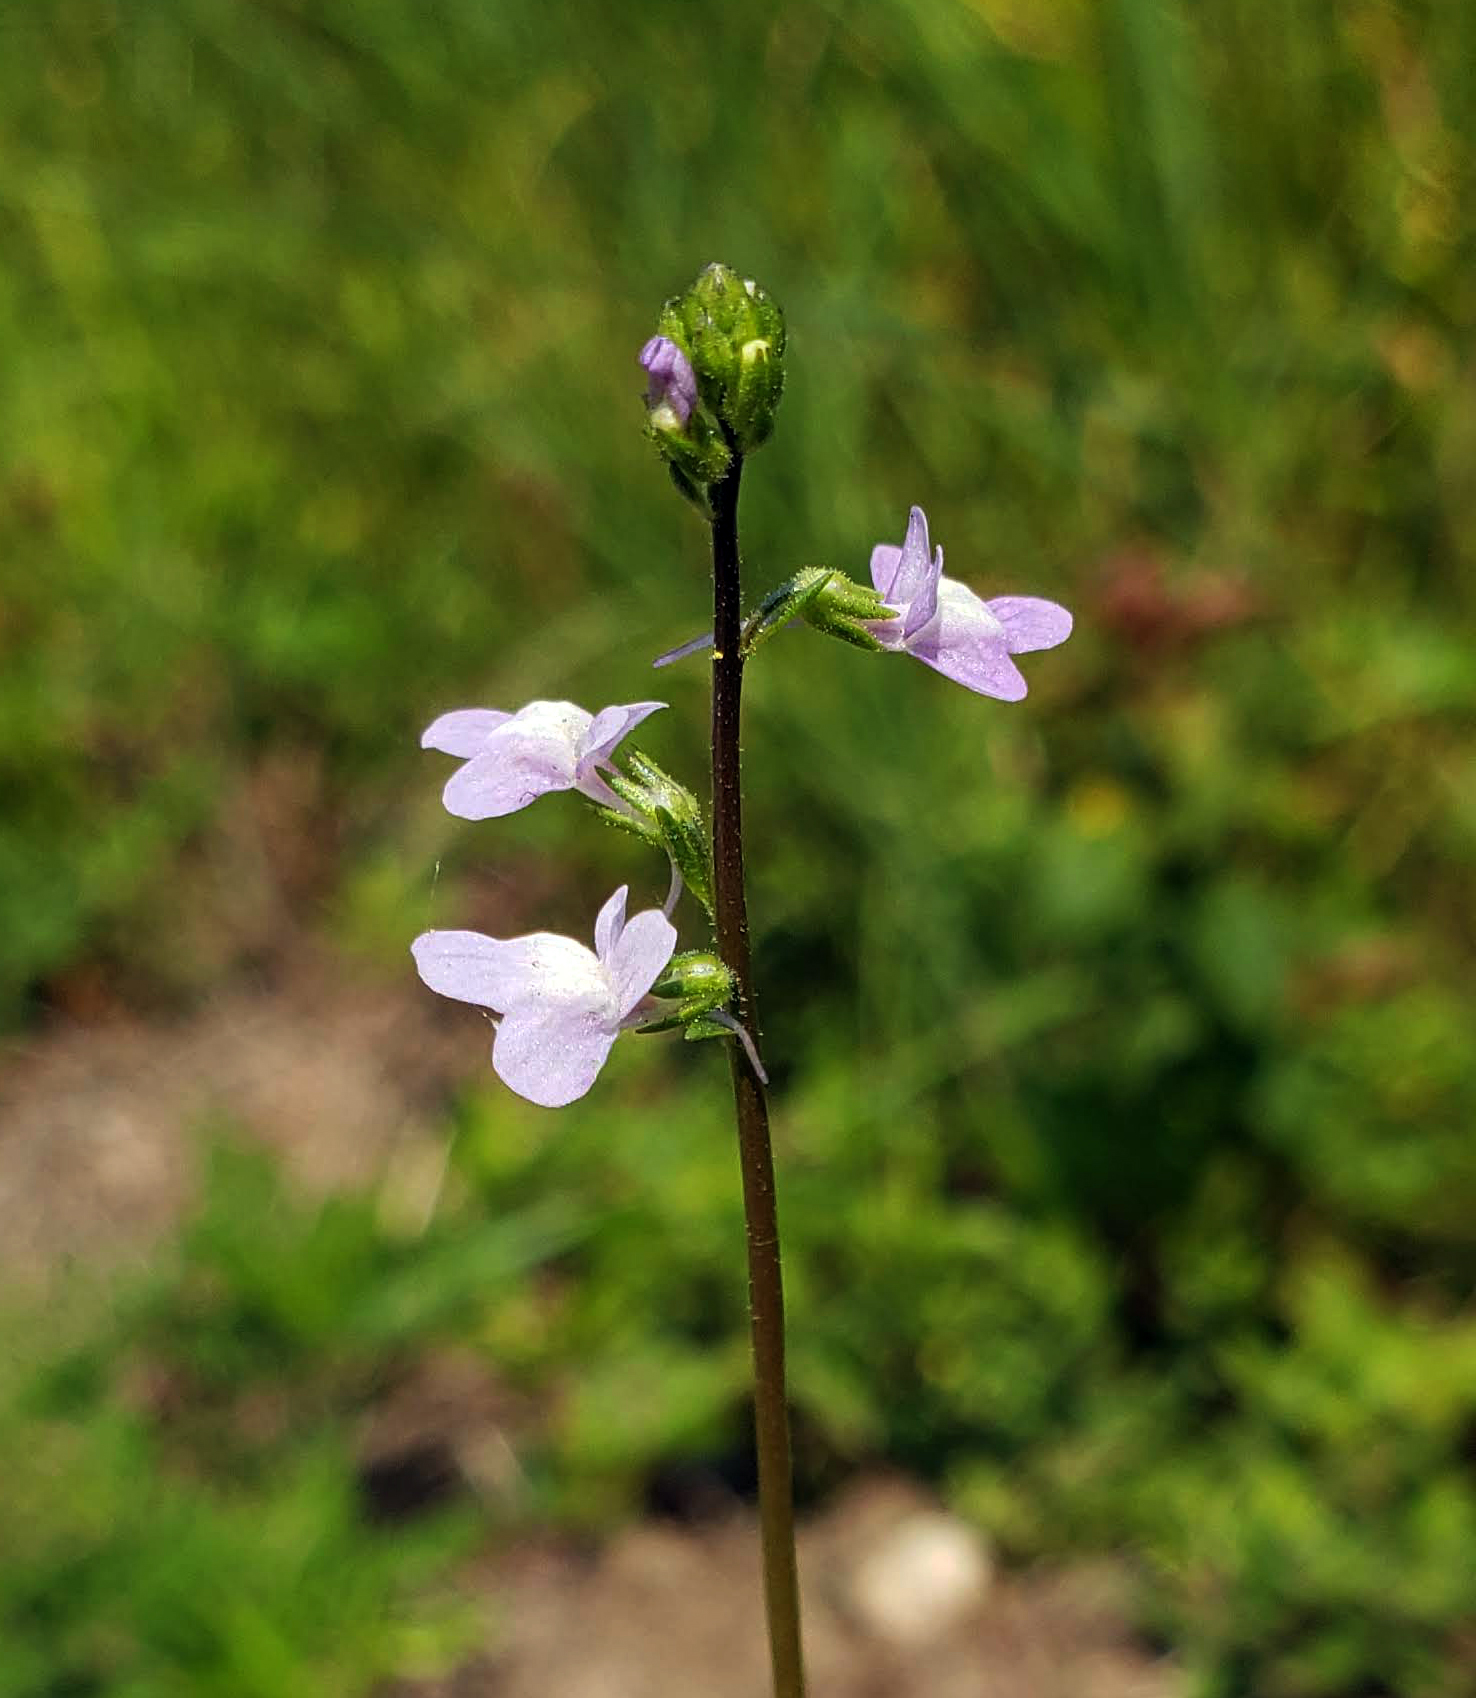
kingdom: Plantae
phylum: Tracheophyta
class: Magnoliopsida
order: Lamiales
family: Plantaginaceae
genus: Nuttallanthus
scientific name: Nuttallanthus canadensis
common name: Blue toadflax
